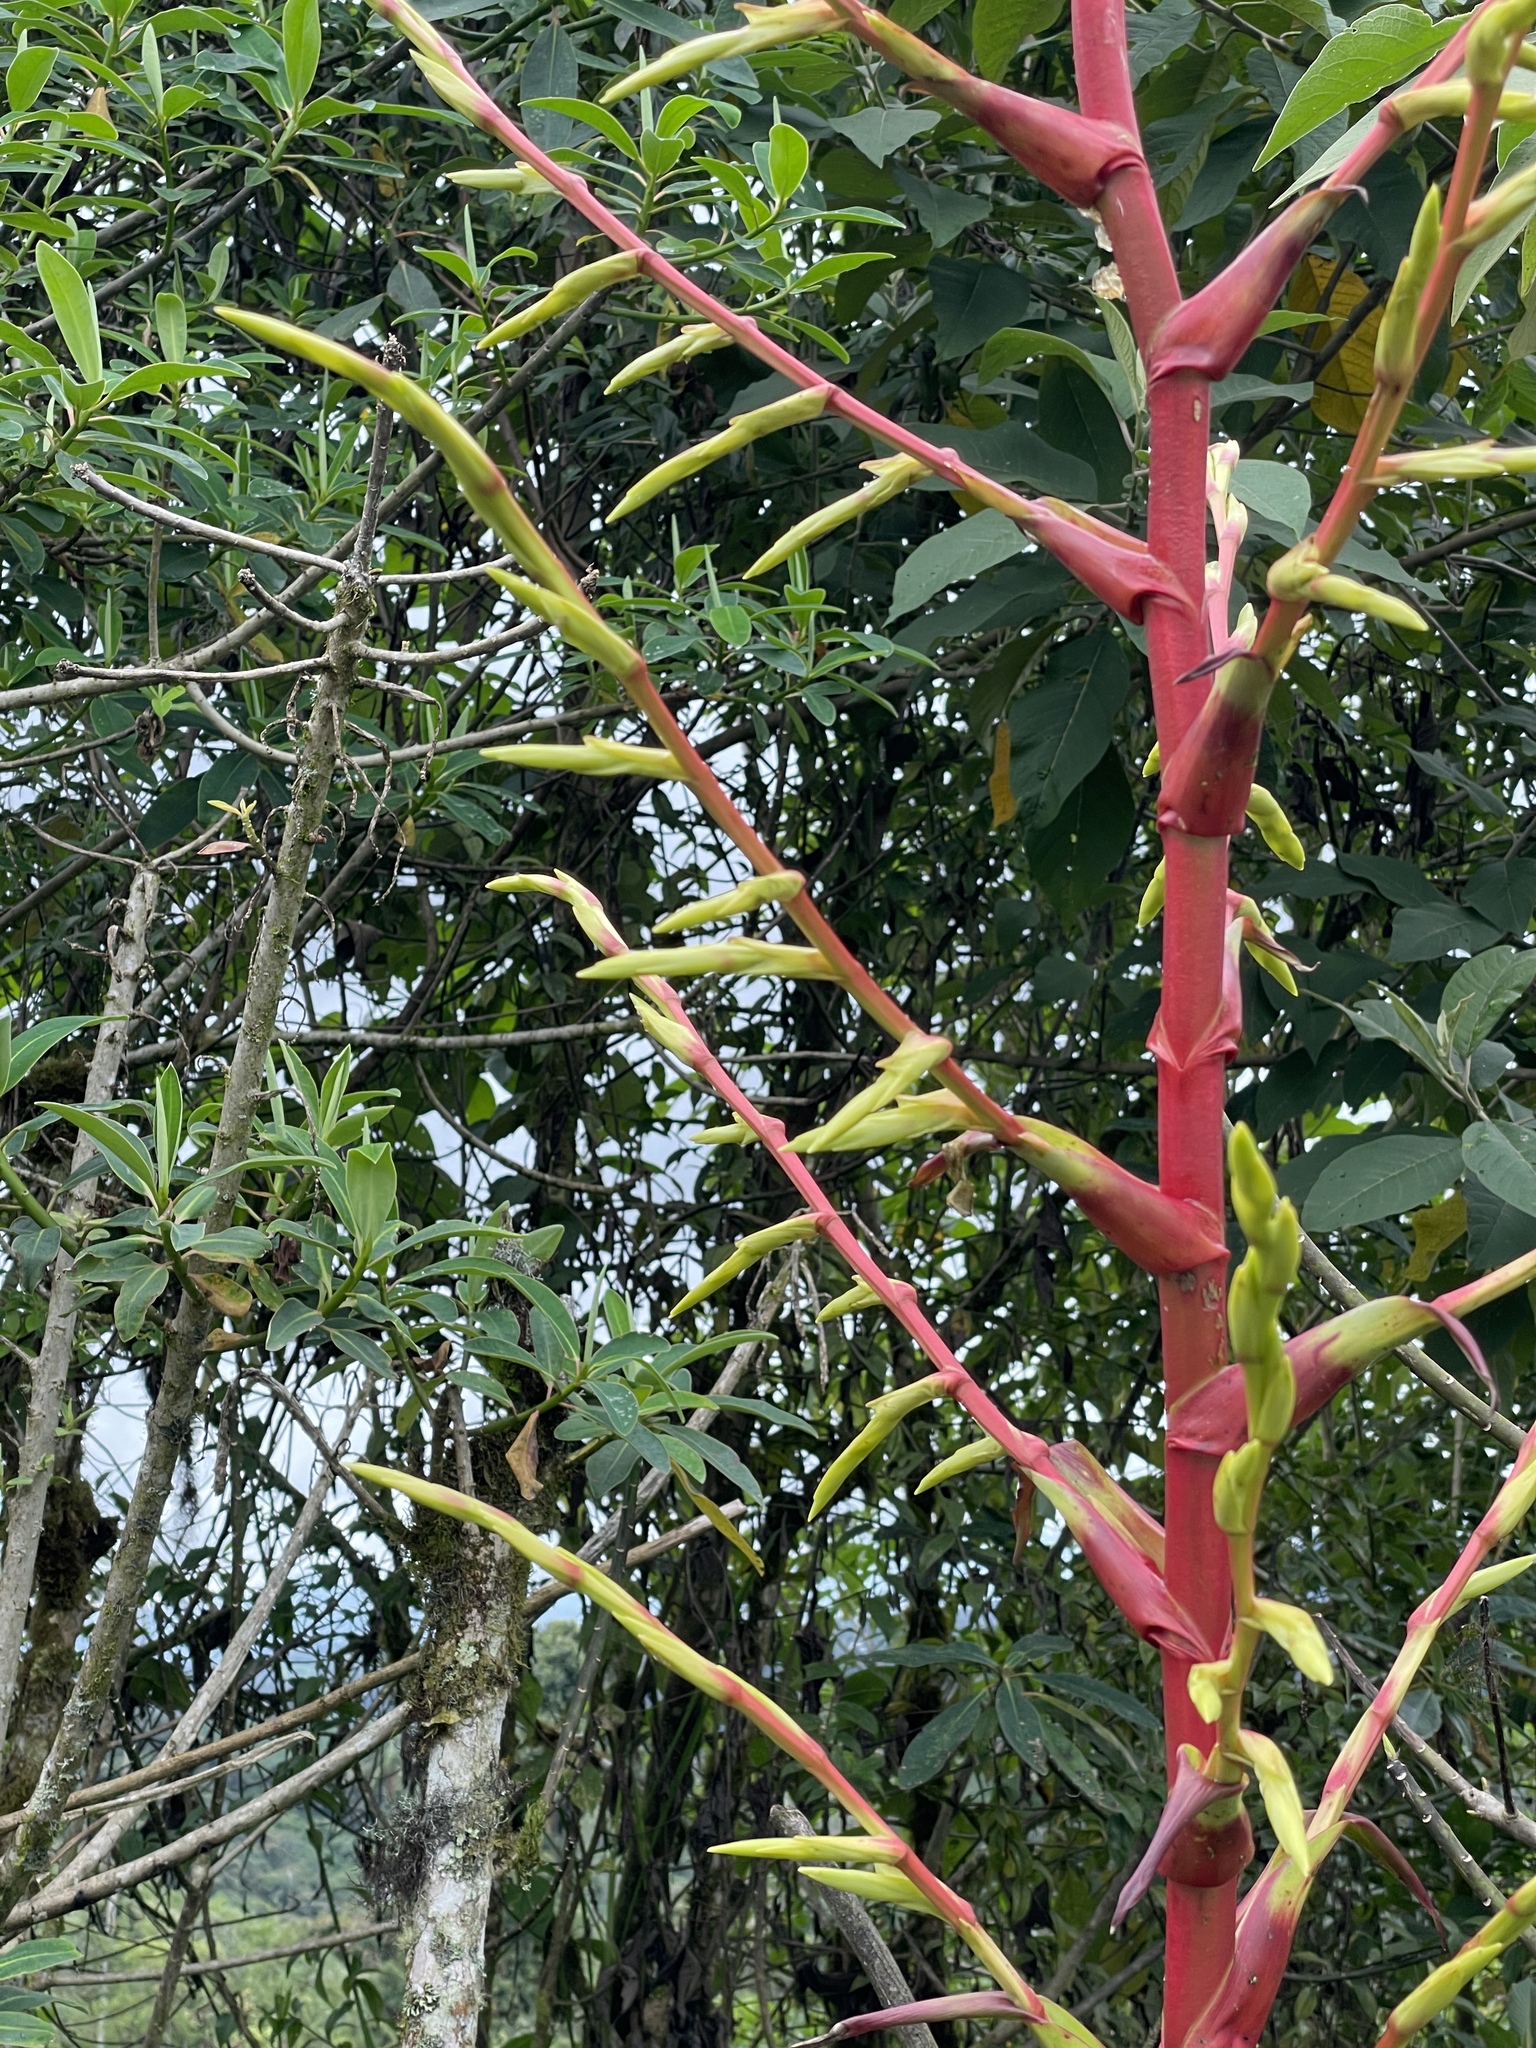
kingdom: Plantae
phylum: Tracheophyta
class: Liliopsida
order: Poales
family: Bromeliaceae
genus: Gregbrownia
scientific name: Gregbrownia lyman-smithii
